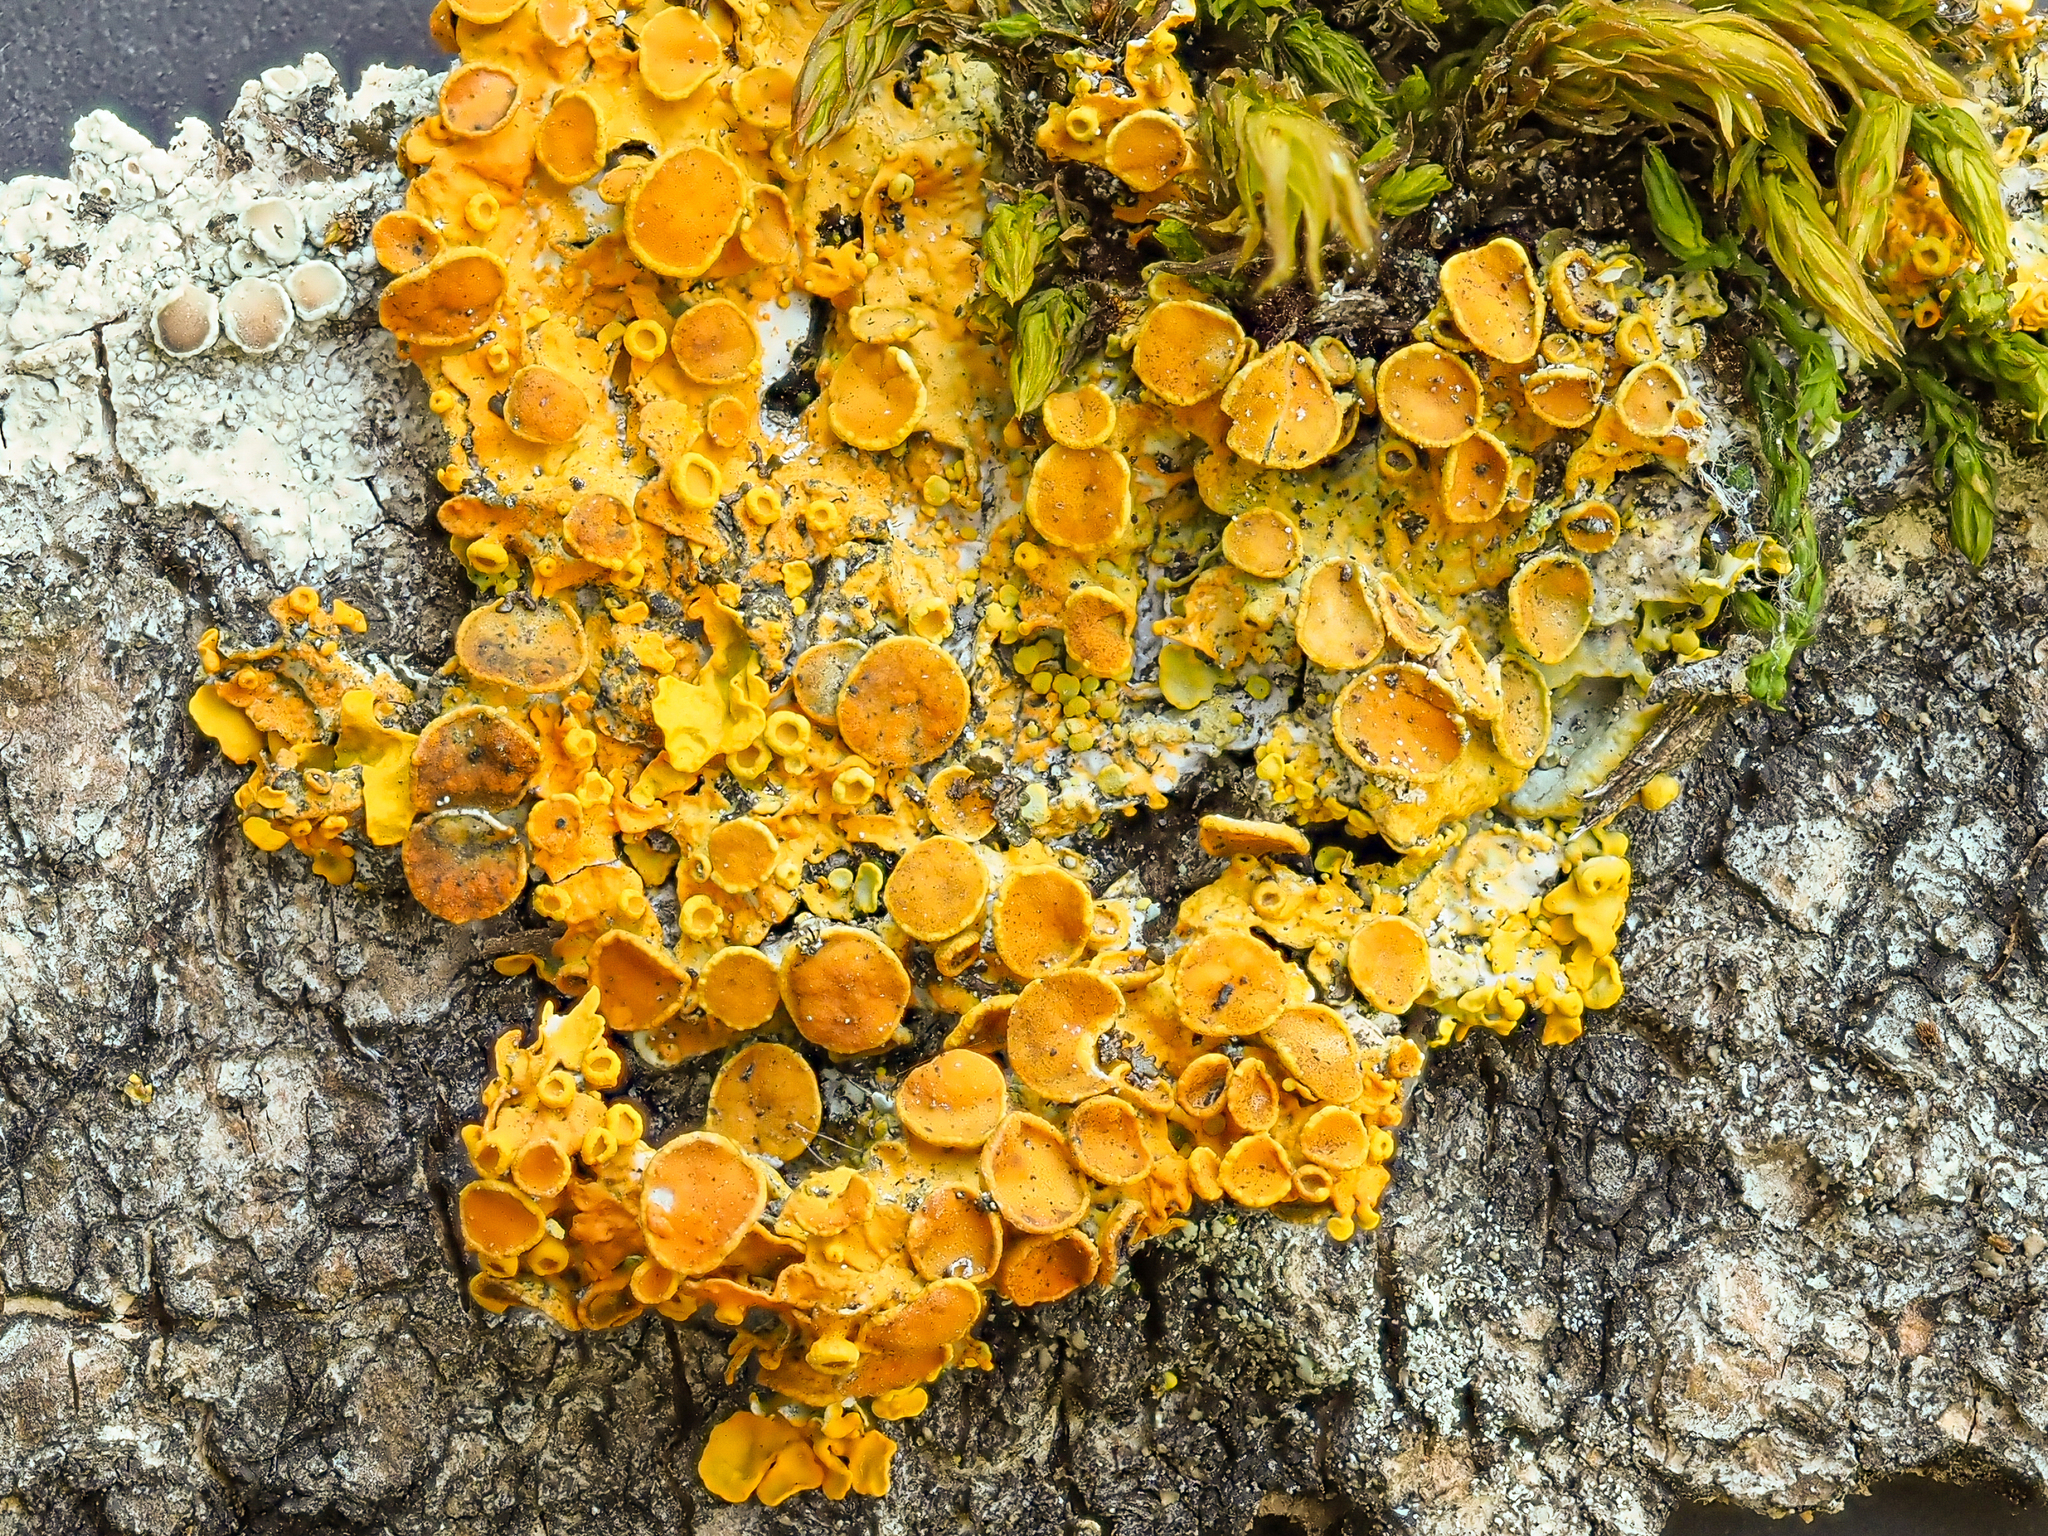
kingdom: Fungi
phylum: Ascomycota
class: Lecanoromycetes
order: Teloschistales
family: Teloschistaceae
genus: Xanthoria
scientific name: Xanthoria parietina
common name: Common orange lichen
